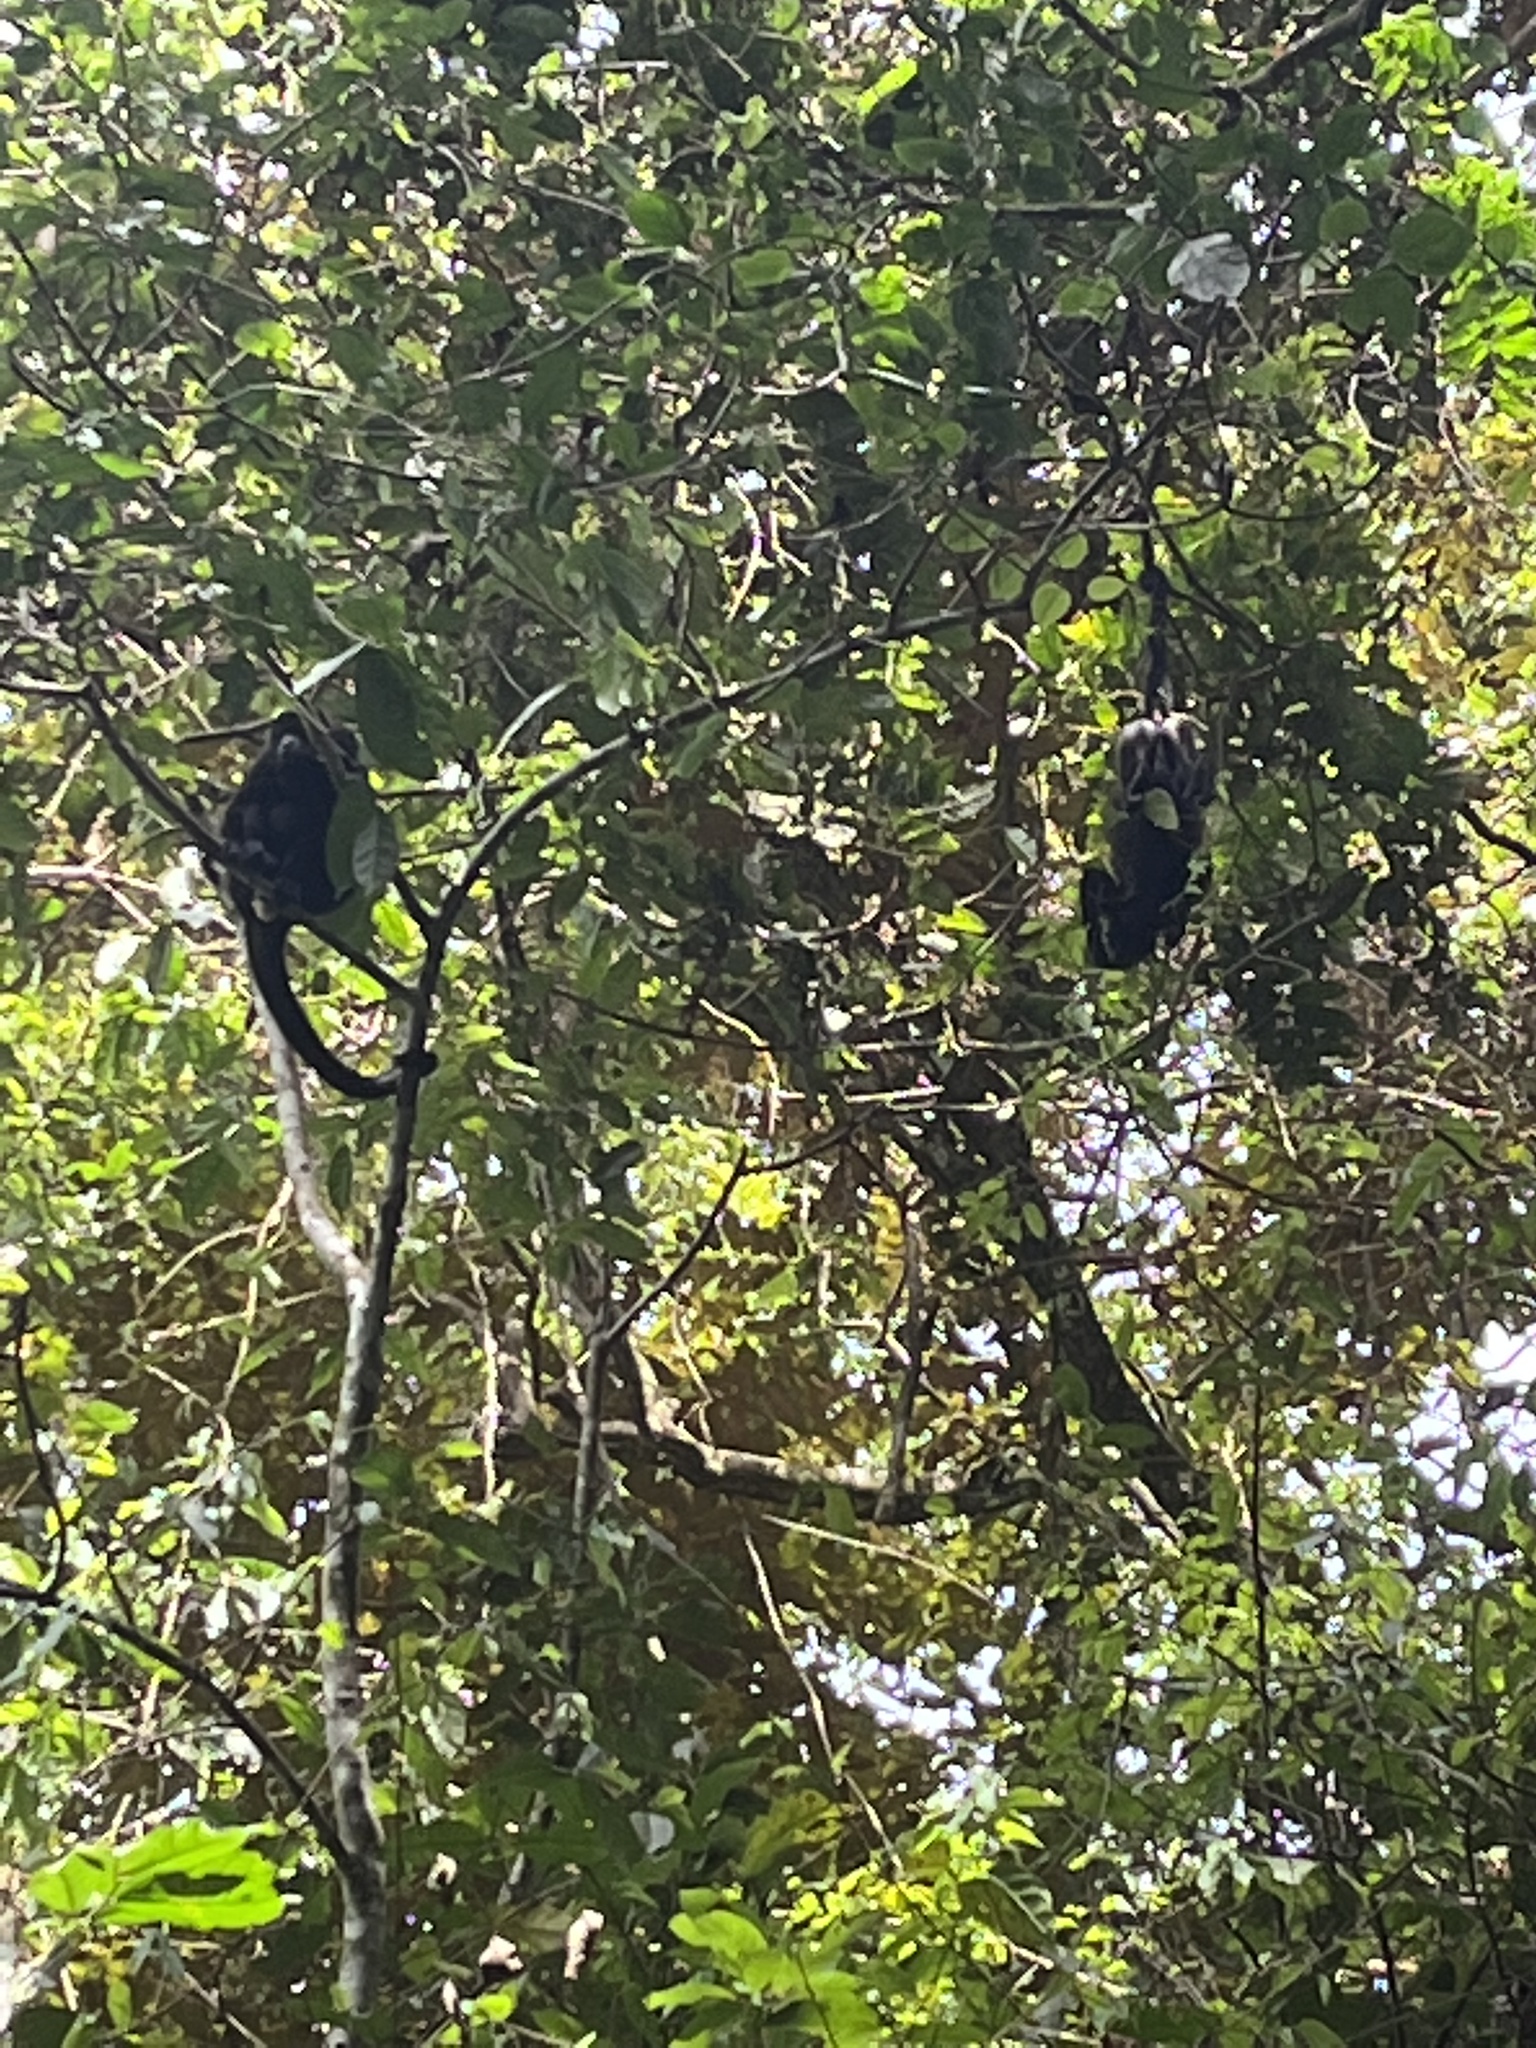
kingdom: Animalia
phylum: Chordata
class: Mammalia
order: Primates
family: Atelidae
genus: Alouatta
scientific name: Alouatta palliata
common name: Mantled howler
